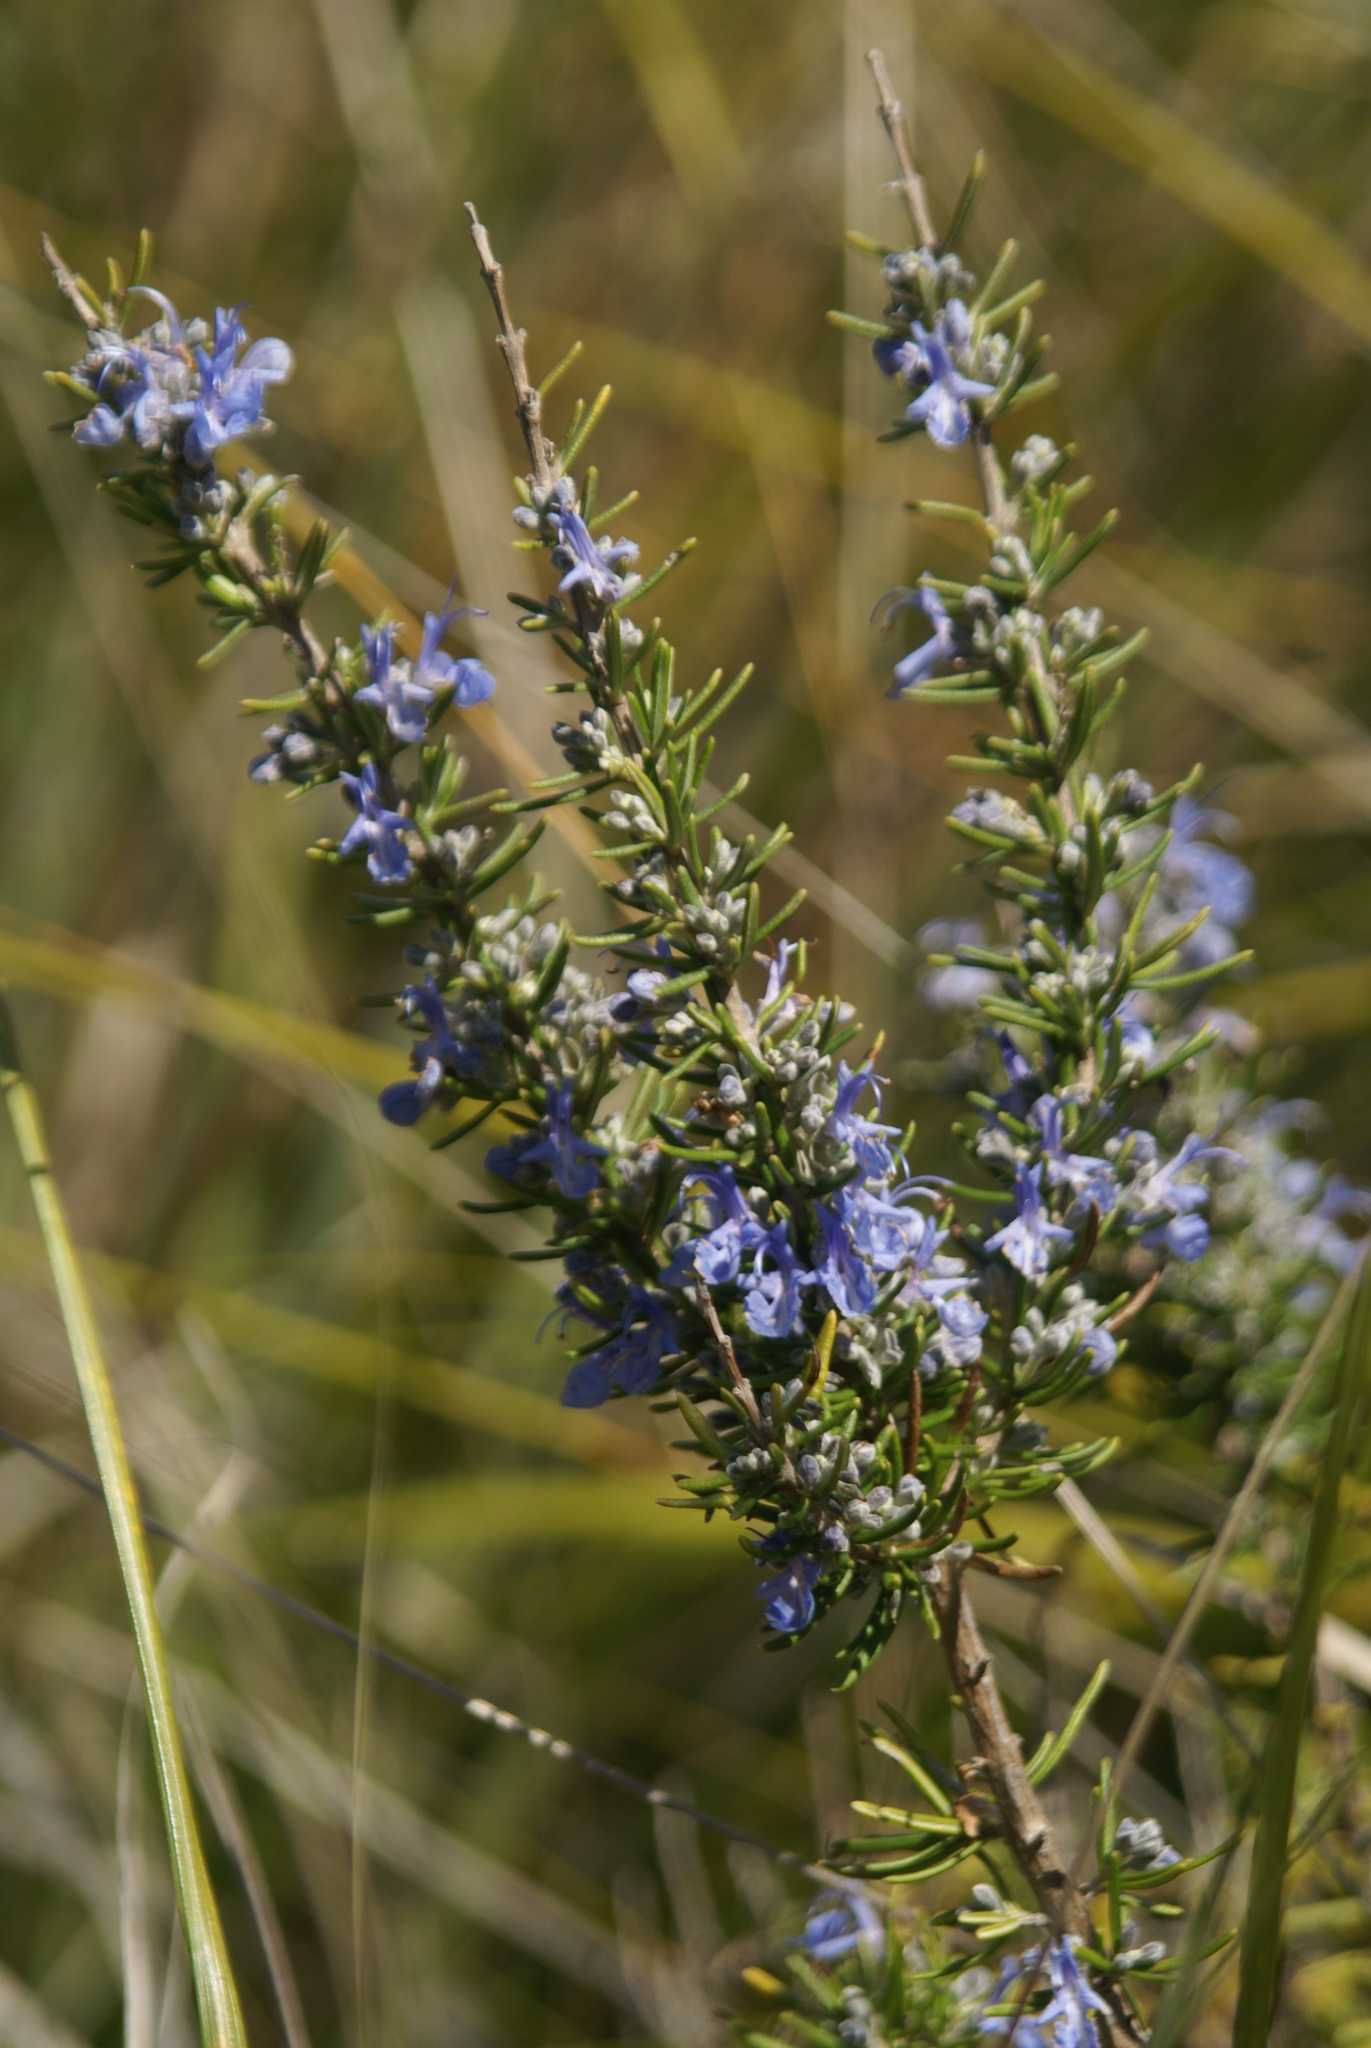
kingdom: Plantae
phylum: Tracheophyta
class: Magnoliopsida
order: Lamiales
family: Lamiaceae
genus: Salvia
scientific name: Salvia rosmarinus
